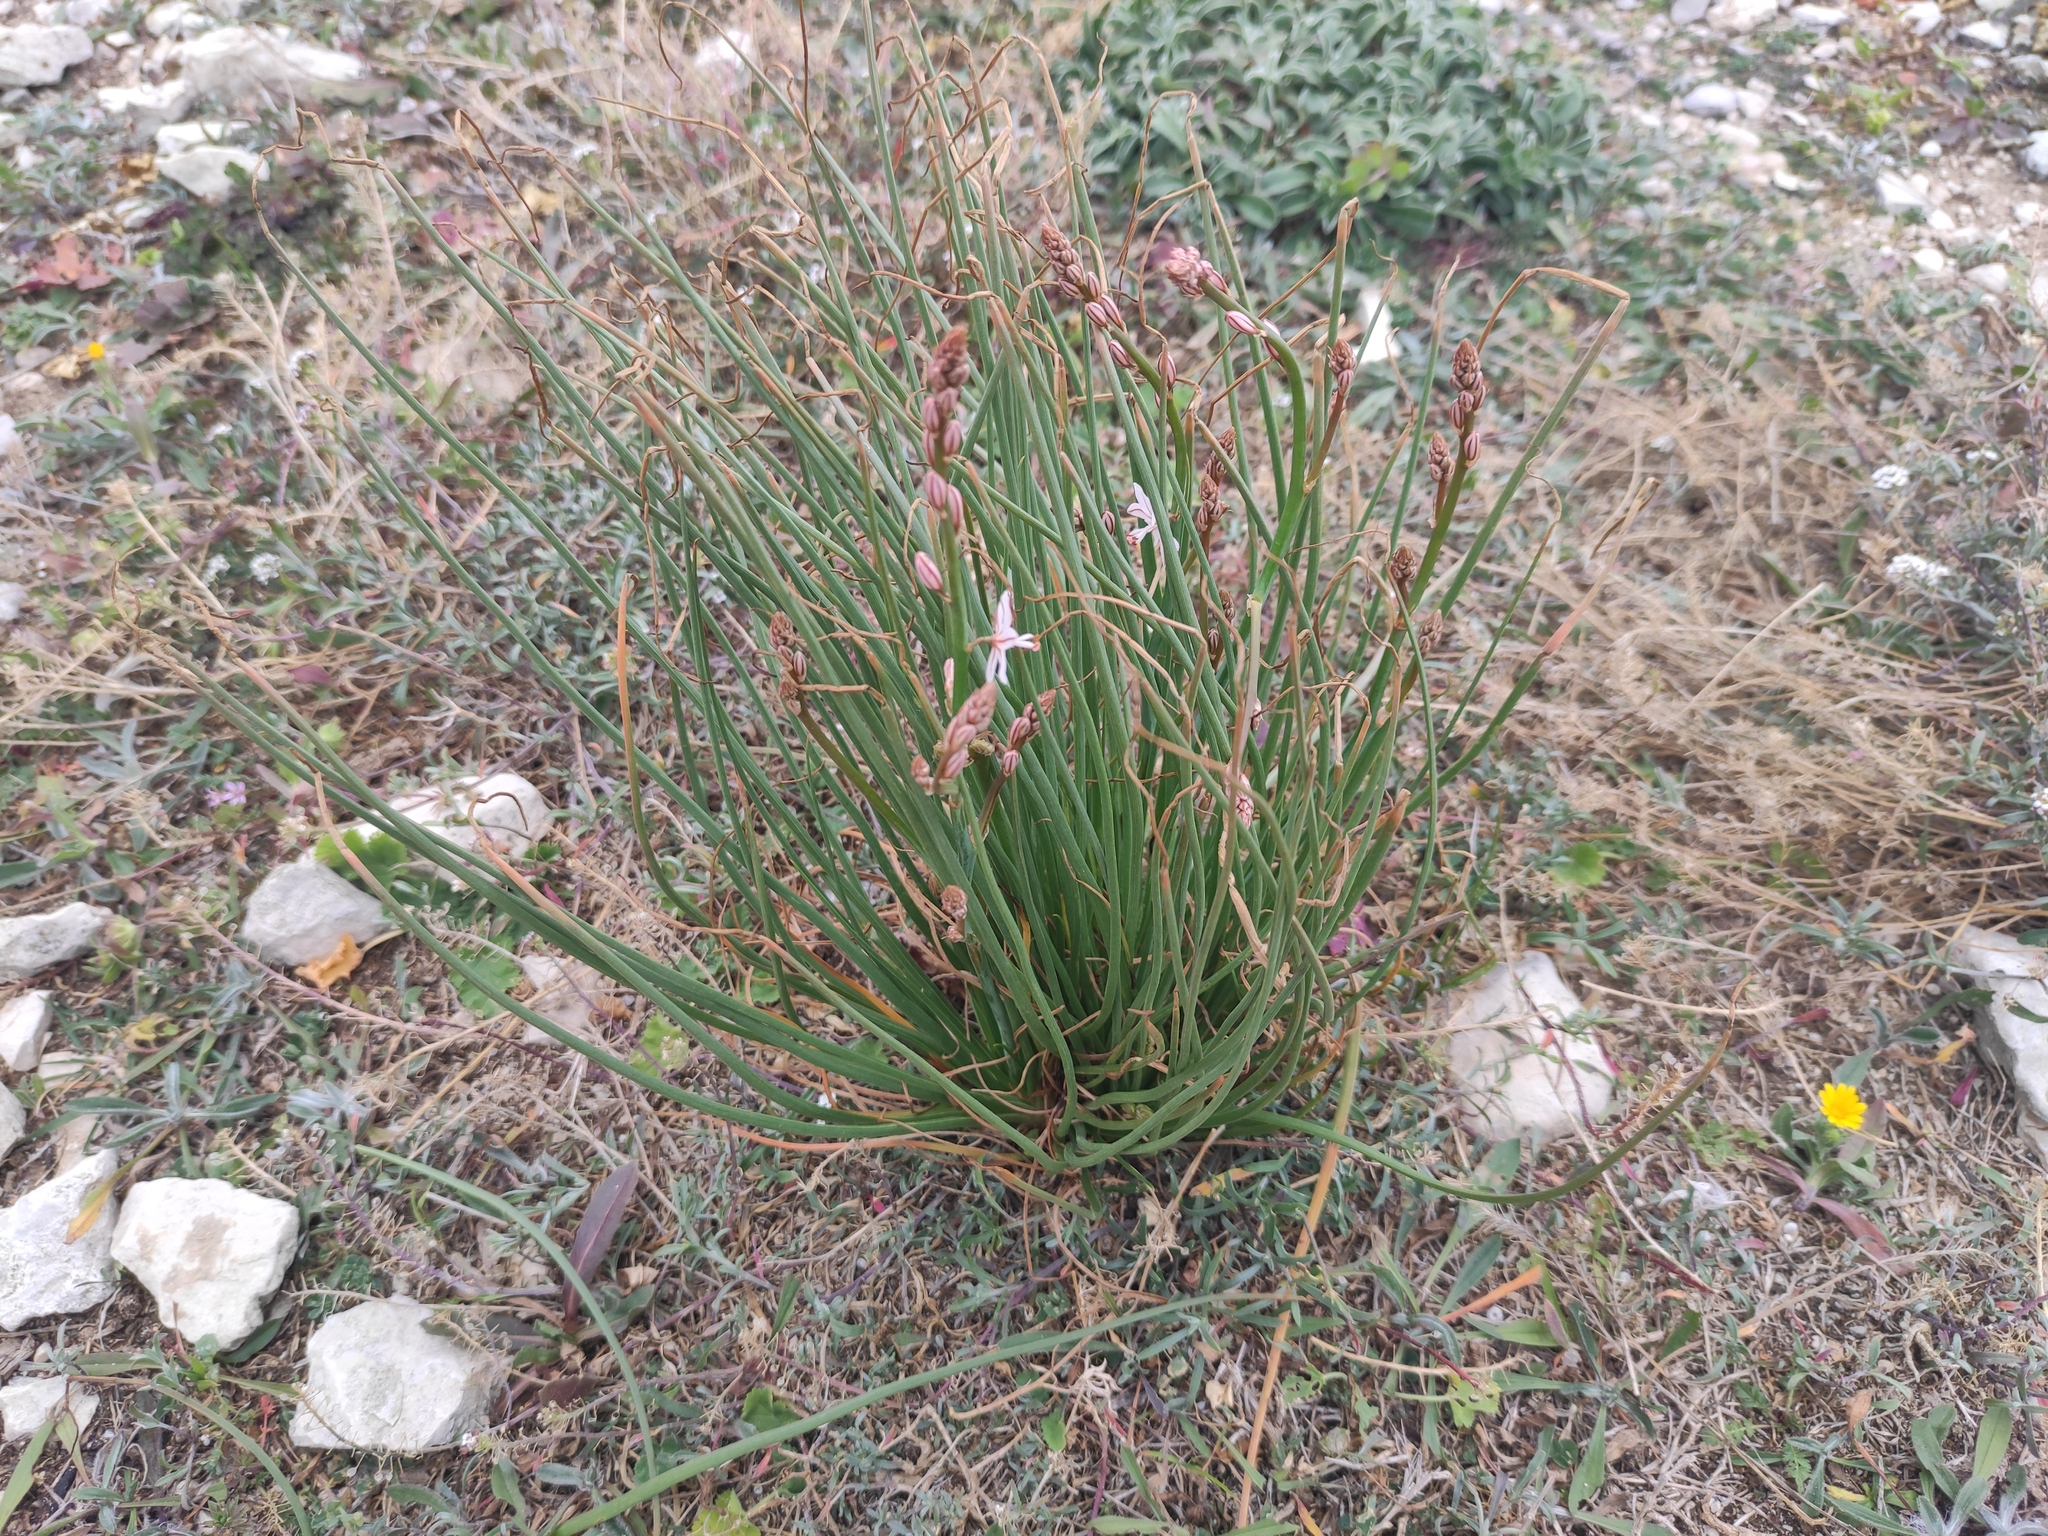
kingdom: Plantae
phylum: Tracheophyta
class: Liliopsida
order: Asparagales
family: Asphodelaceae
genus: Asphodelus
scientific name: Asphodelus fistulosus
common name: Onionweed
